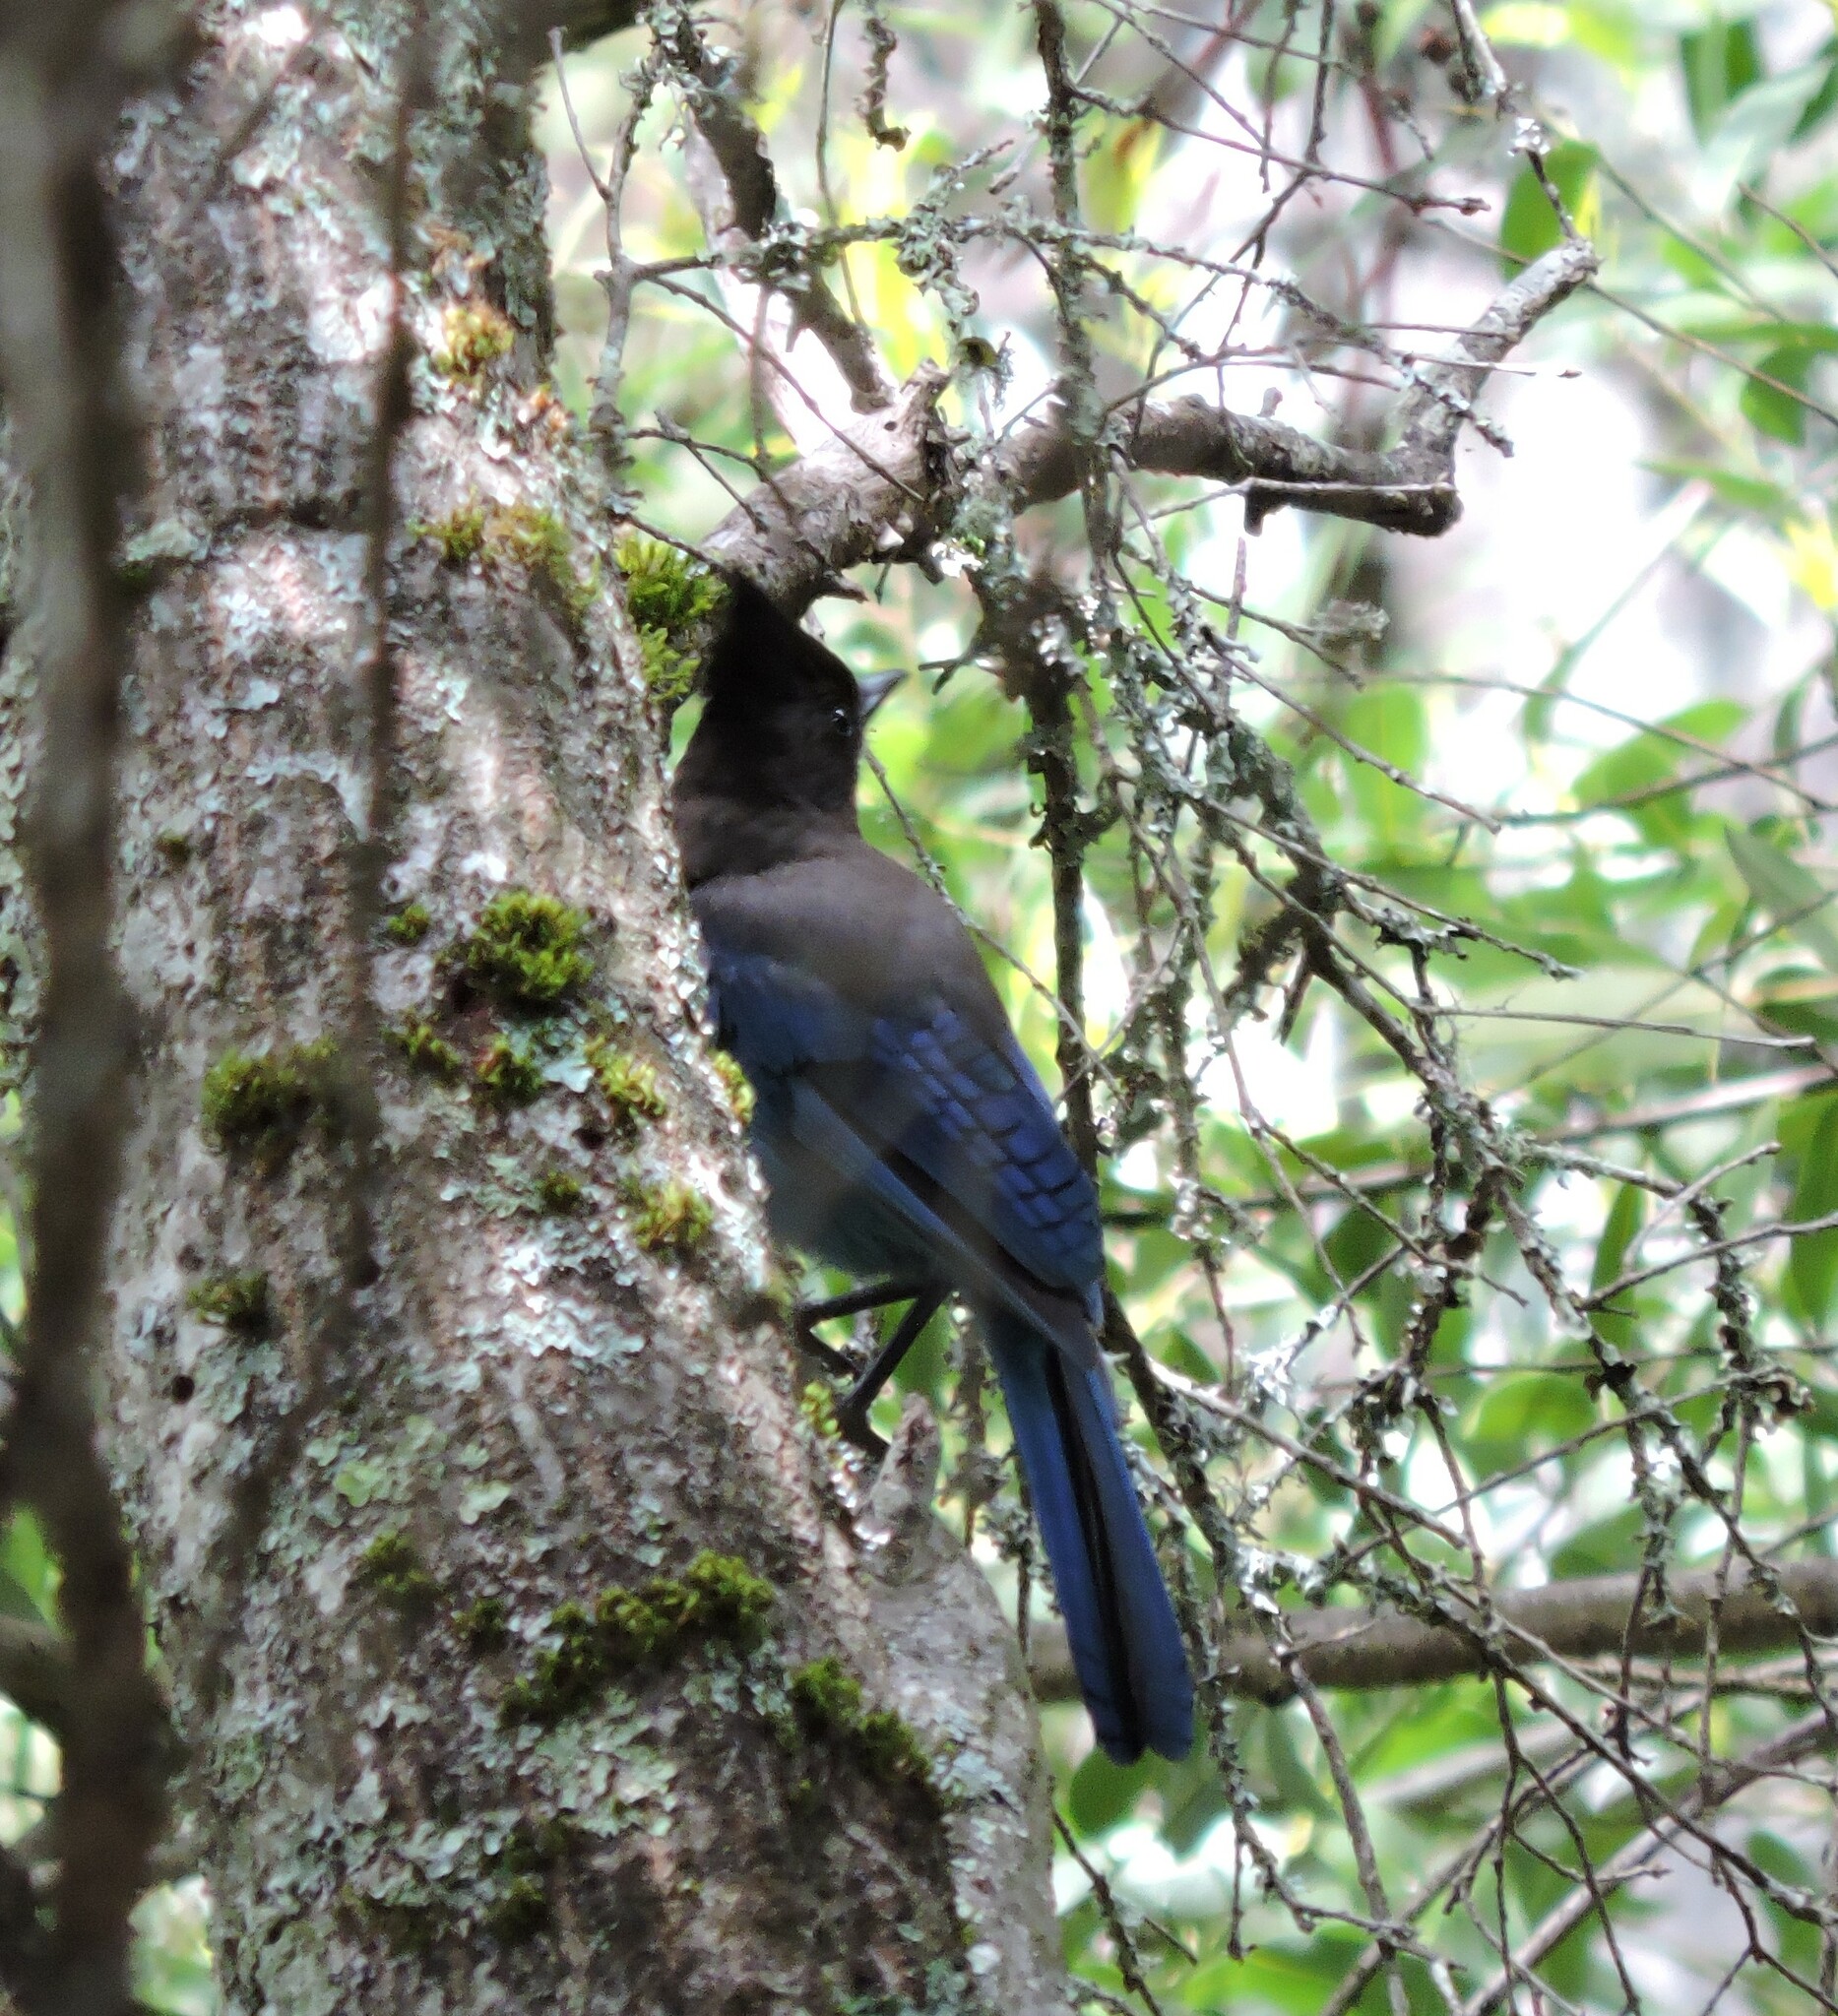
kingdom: Animalia
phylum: Chordata
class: Aves
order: Passeriformes
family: Corvidae
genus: Cyanocitta
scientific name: Cyanocitta stelleri
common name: Steller's jay
